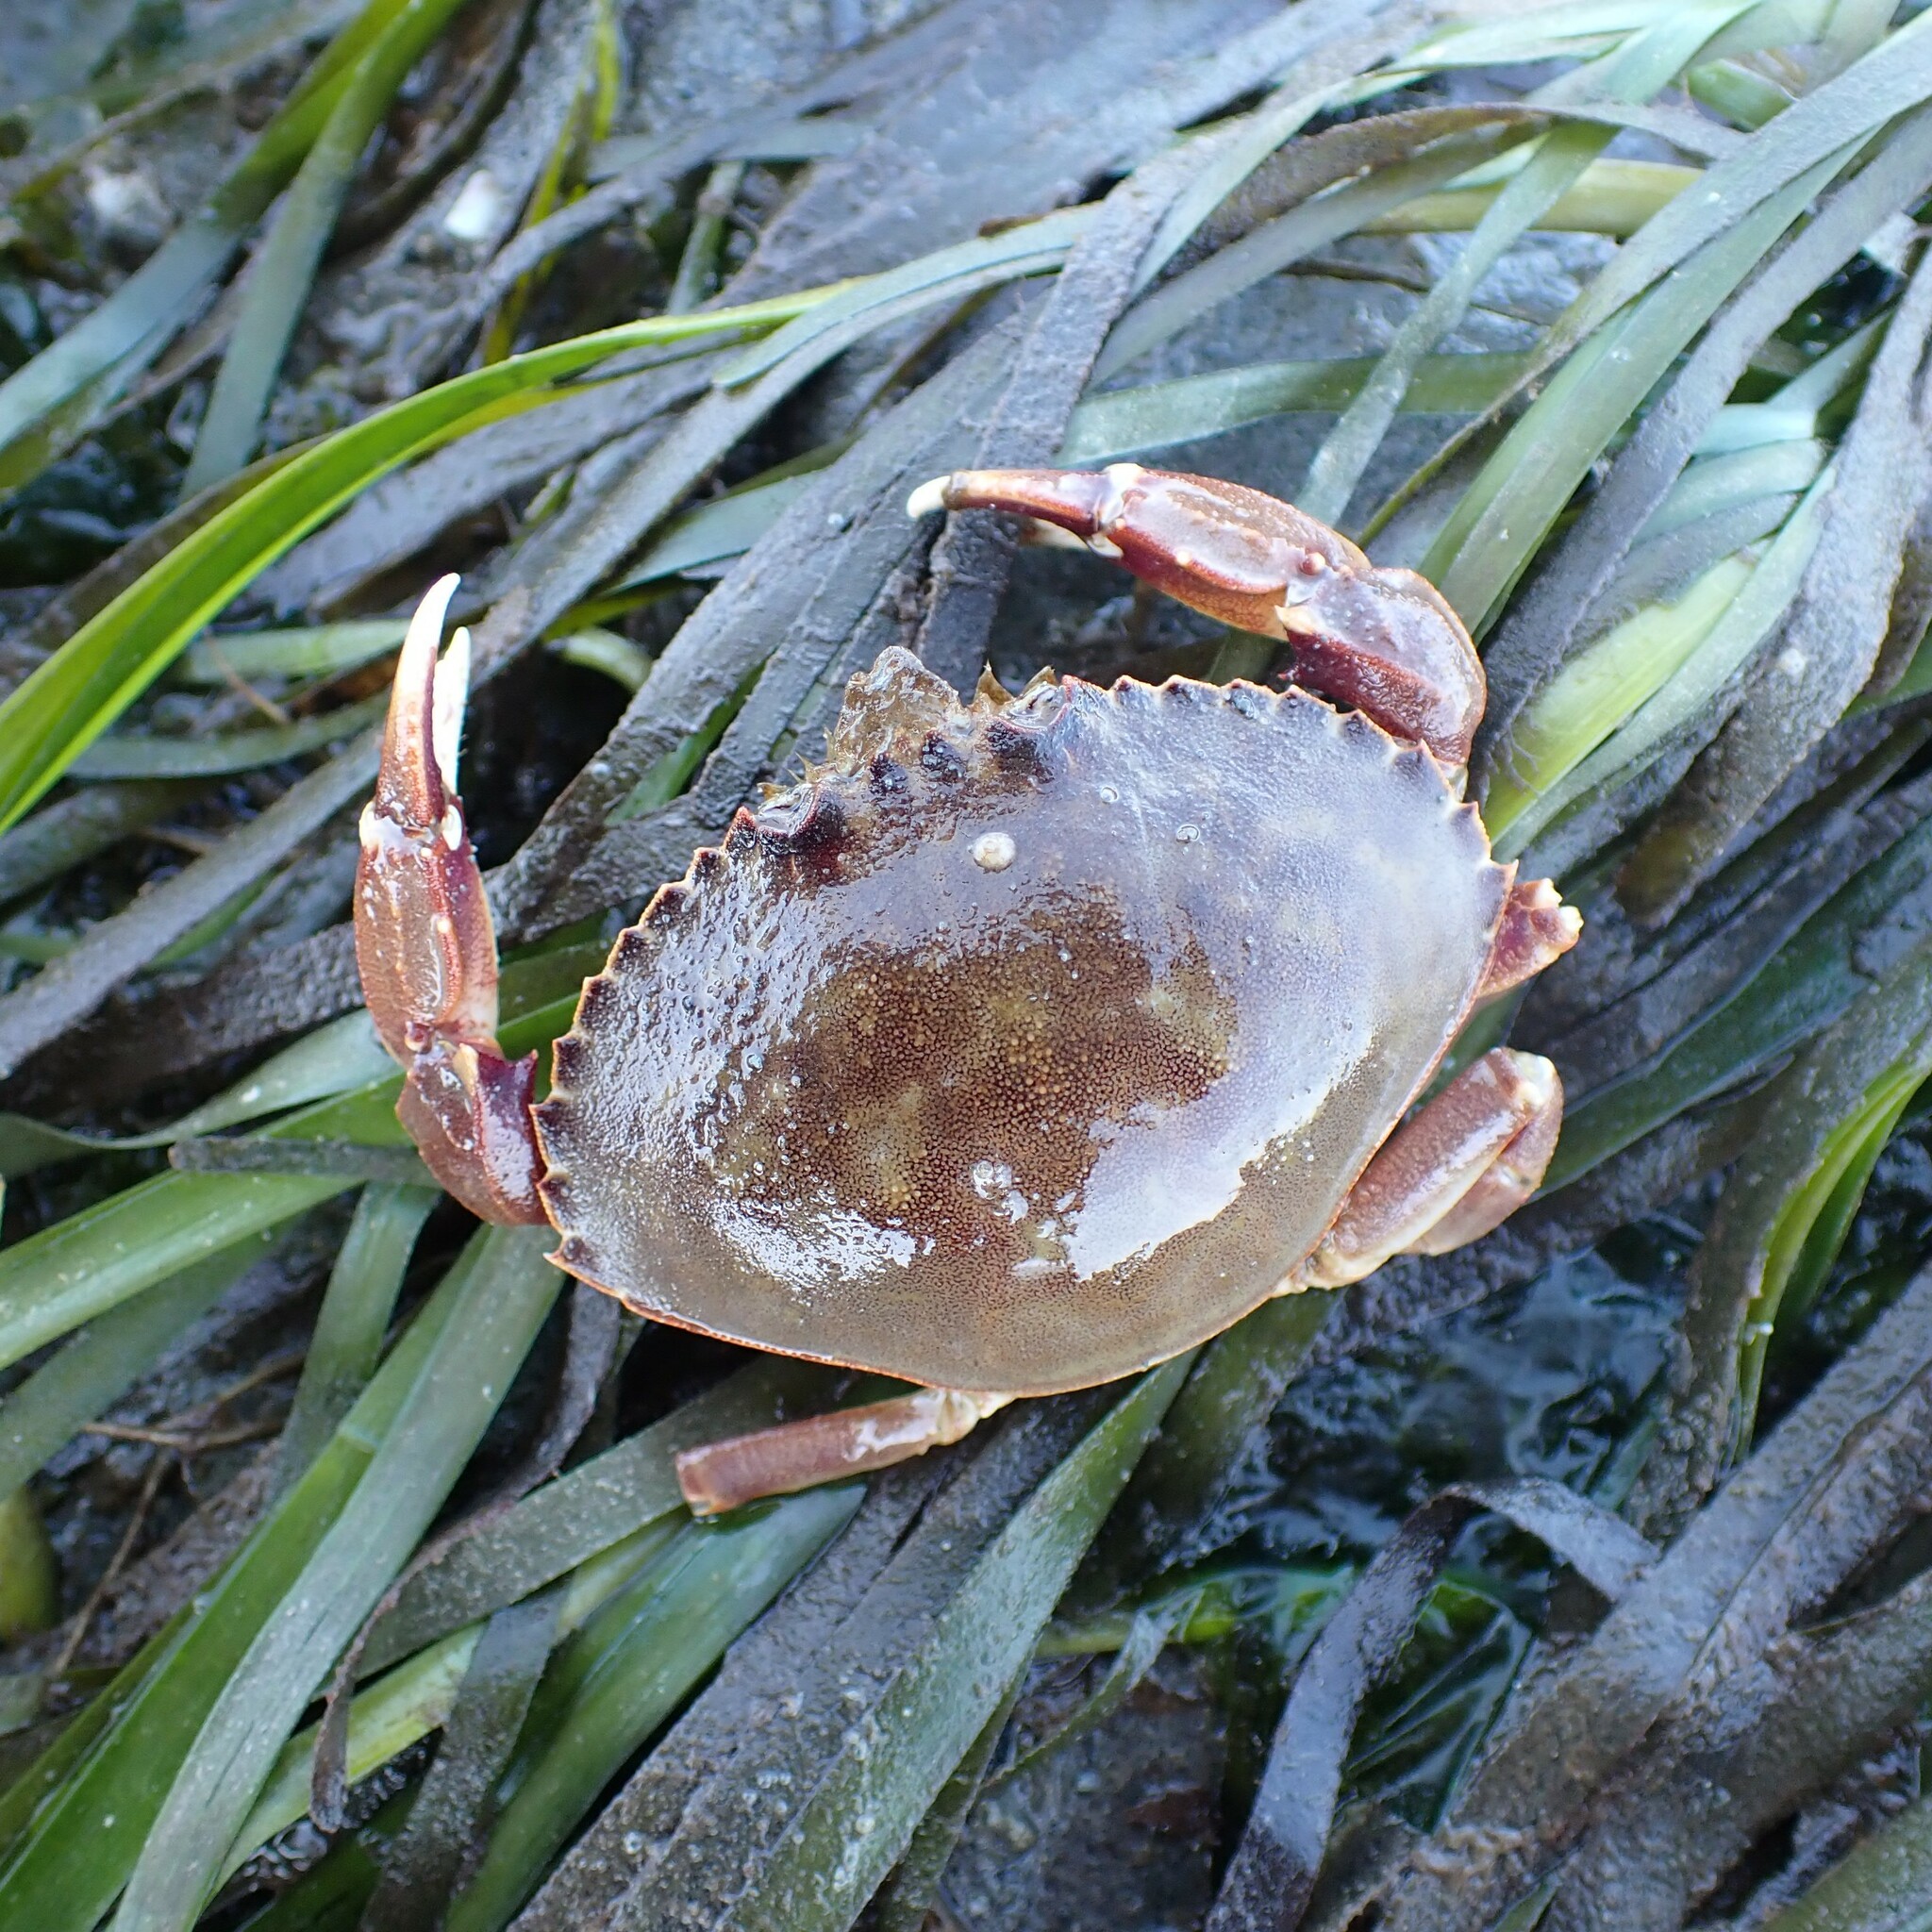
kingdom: Animalia
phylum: Arthropoda
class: Malacostraca
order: Decapoda
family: Cancridae
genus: Metacarcinus
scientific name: Metacarcinus magister
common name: Californian crab
